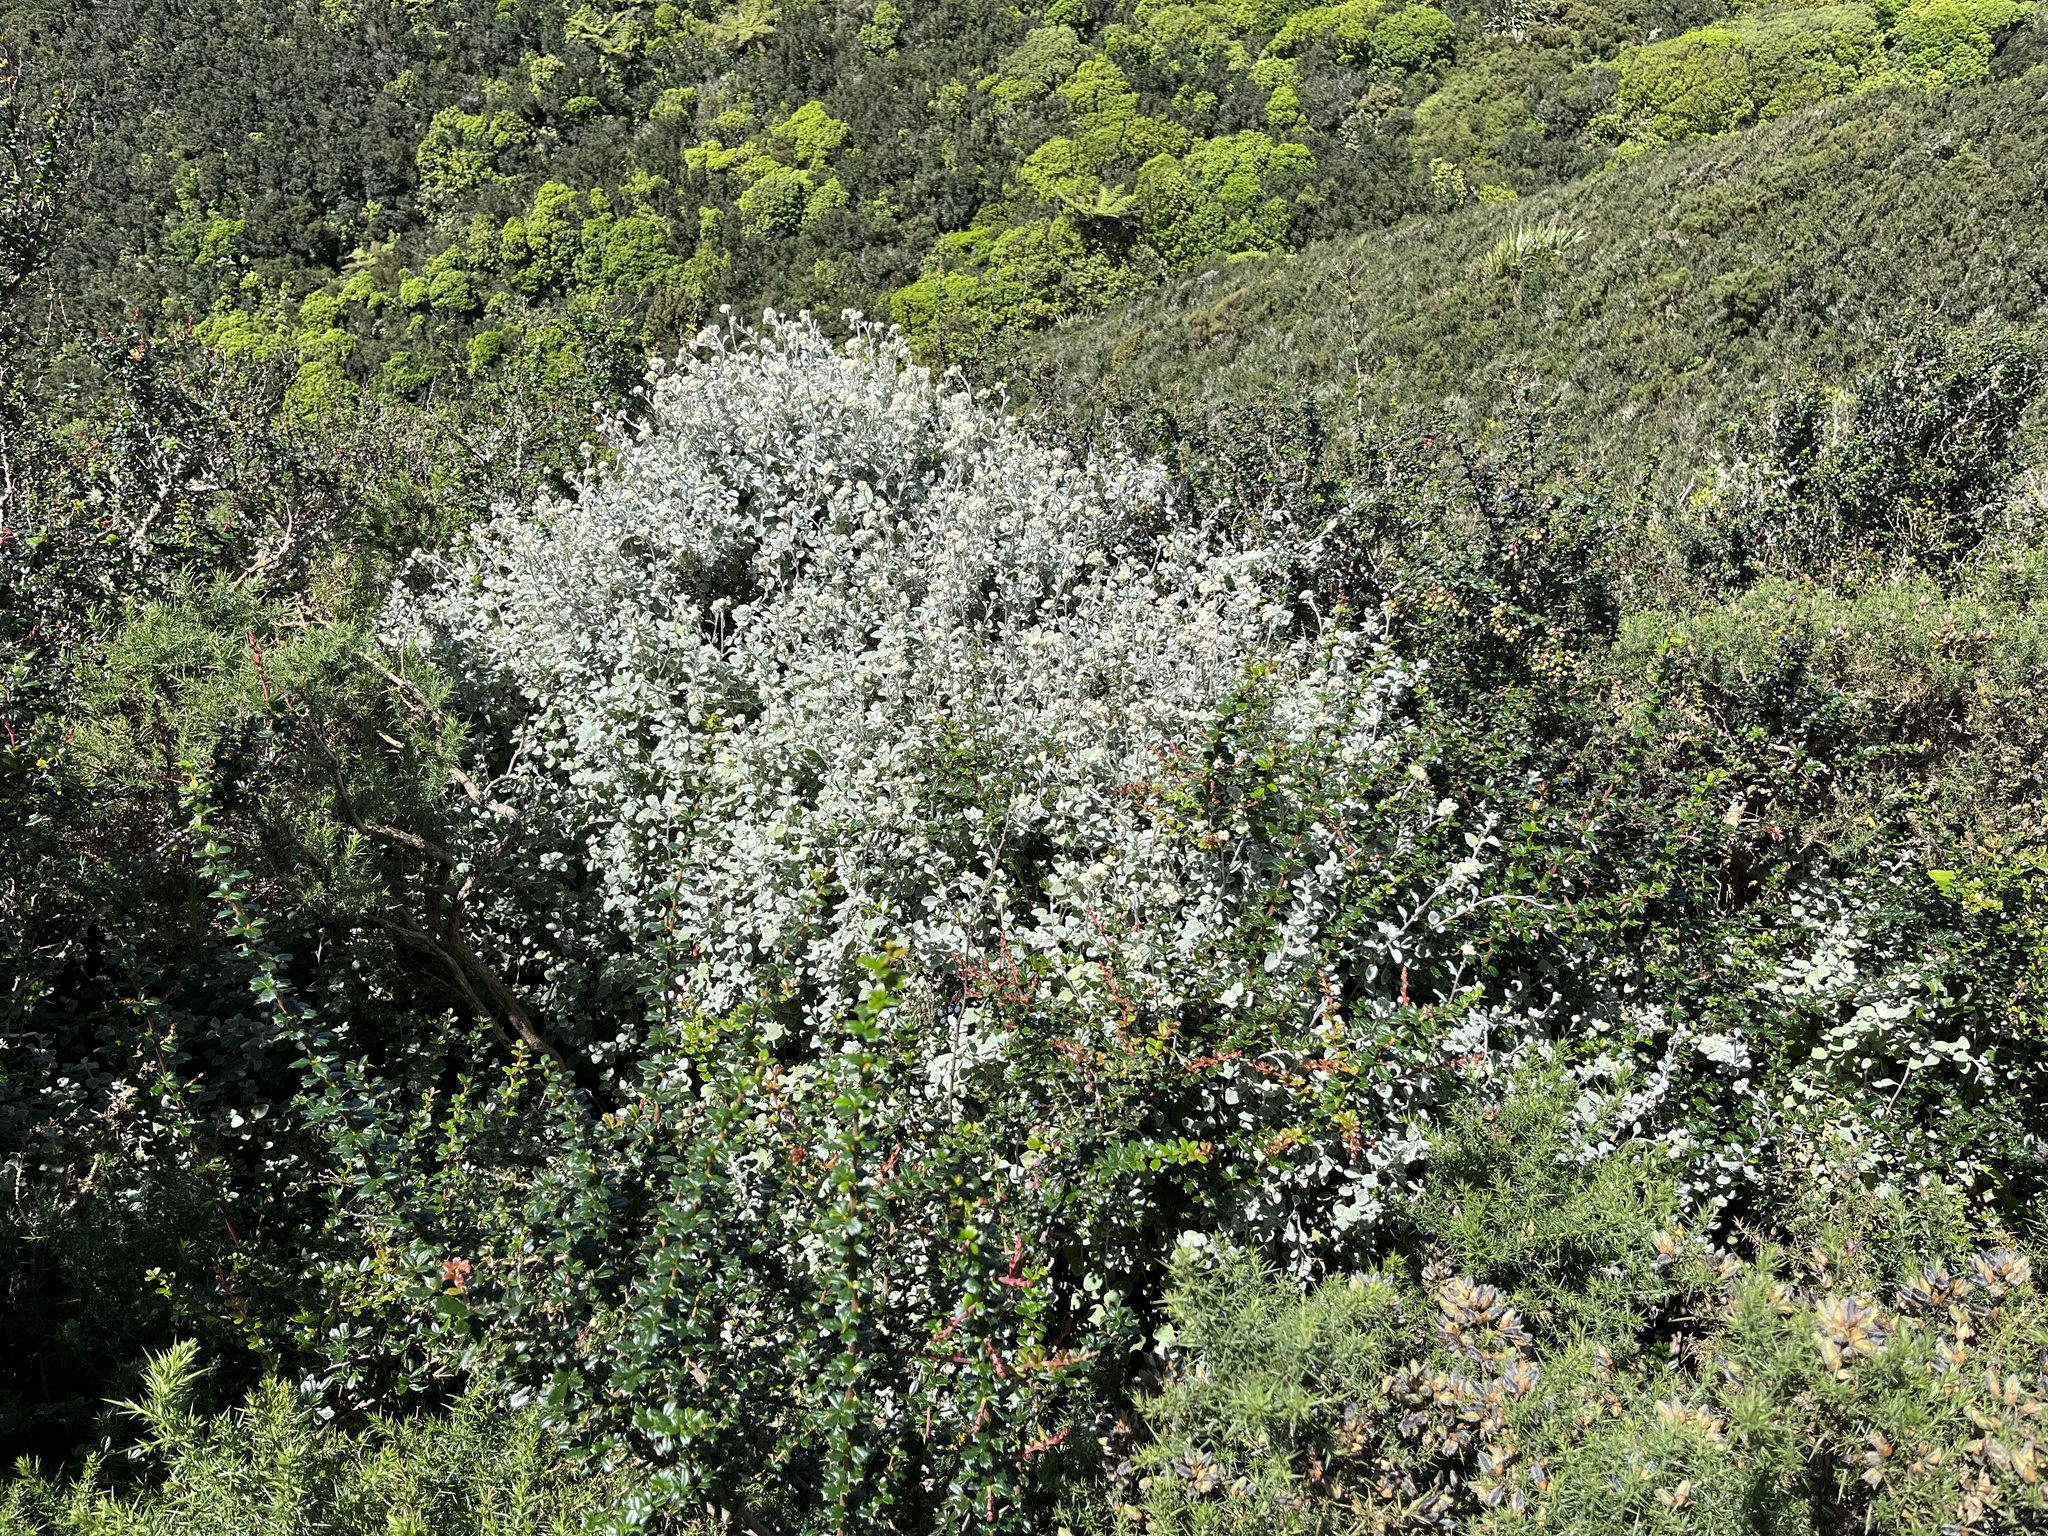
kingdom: Plantae
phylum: Tracheophyta
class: Magnoliopsida
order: Asterales
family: Asteraceae
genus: Helichrysum
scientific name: Helichrysum petiolare
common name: Licorice-plant
